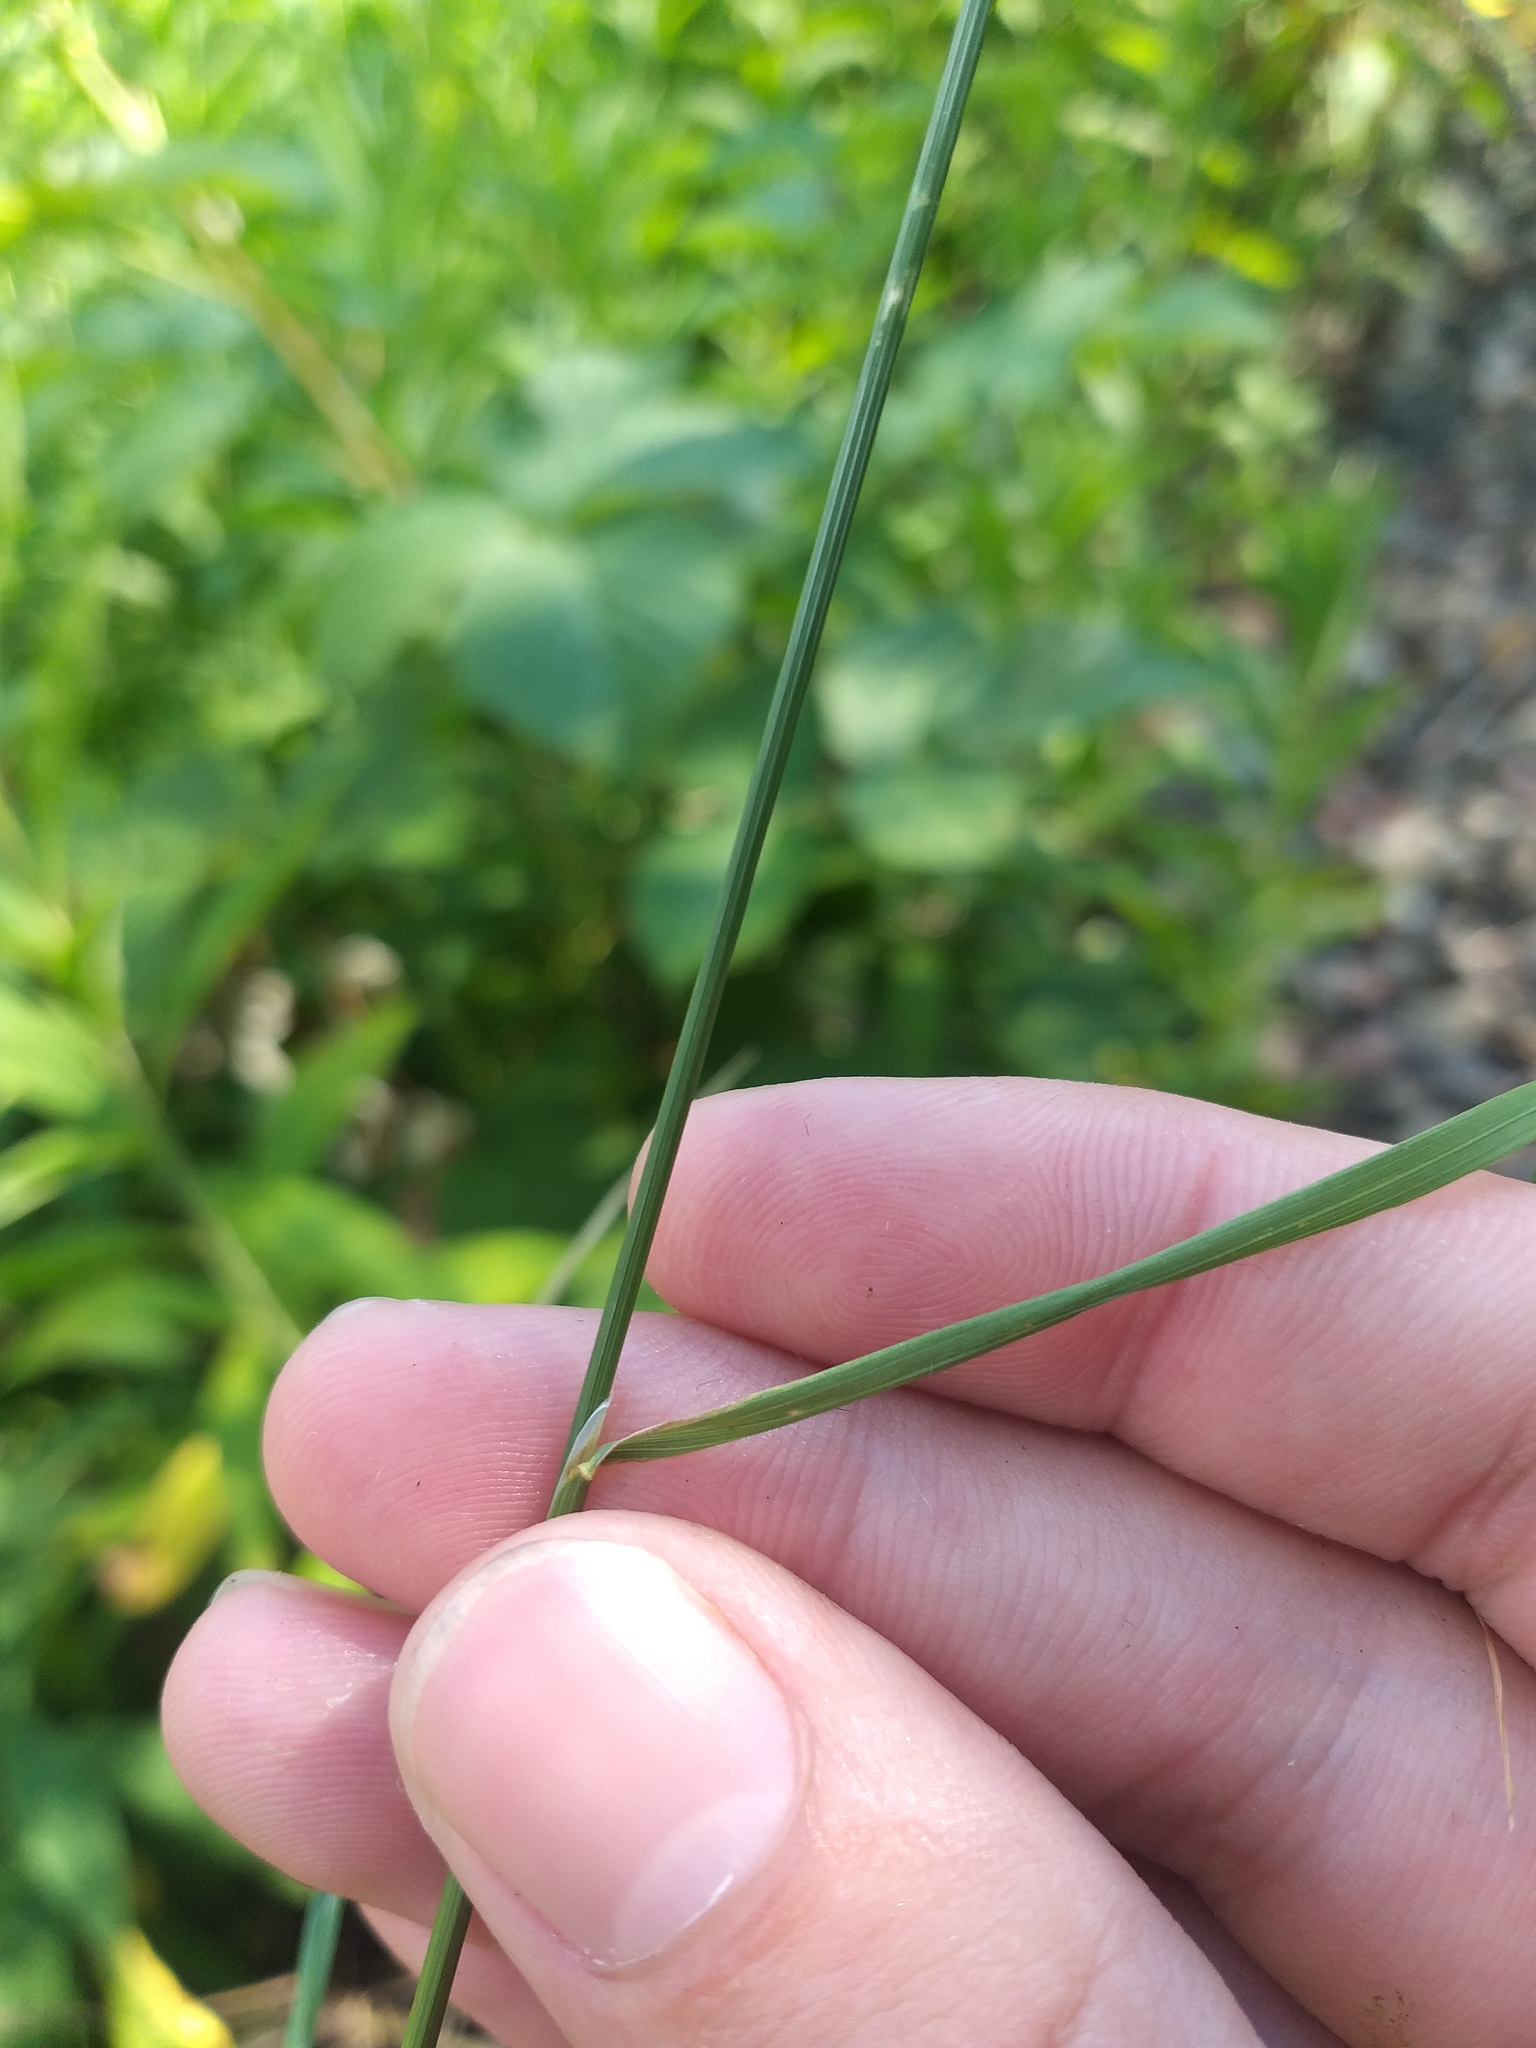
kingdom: Plantae
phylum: Tracheophyta
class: Liliopsida
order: Poales
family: Poaceae
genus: Poa
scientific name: Poa palustris
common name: Swamp meadow-grass
